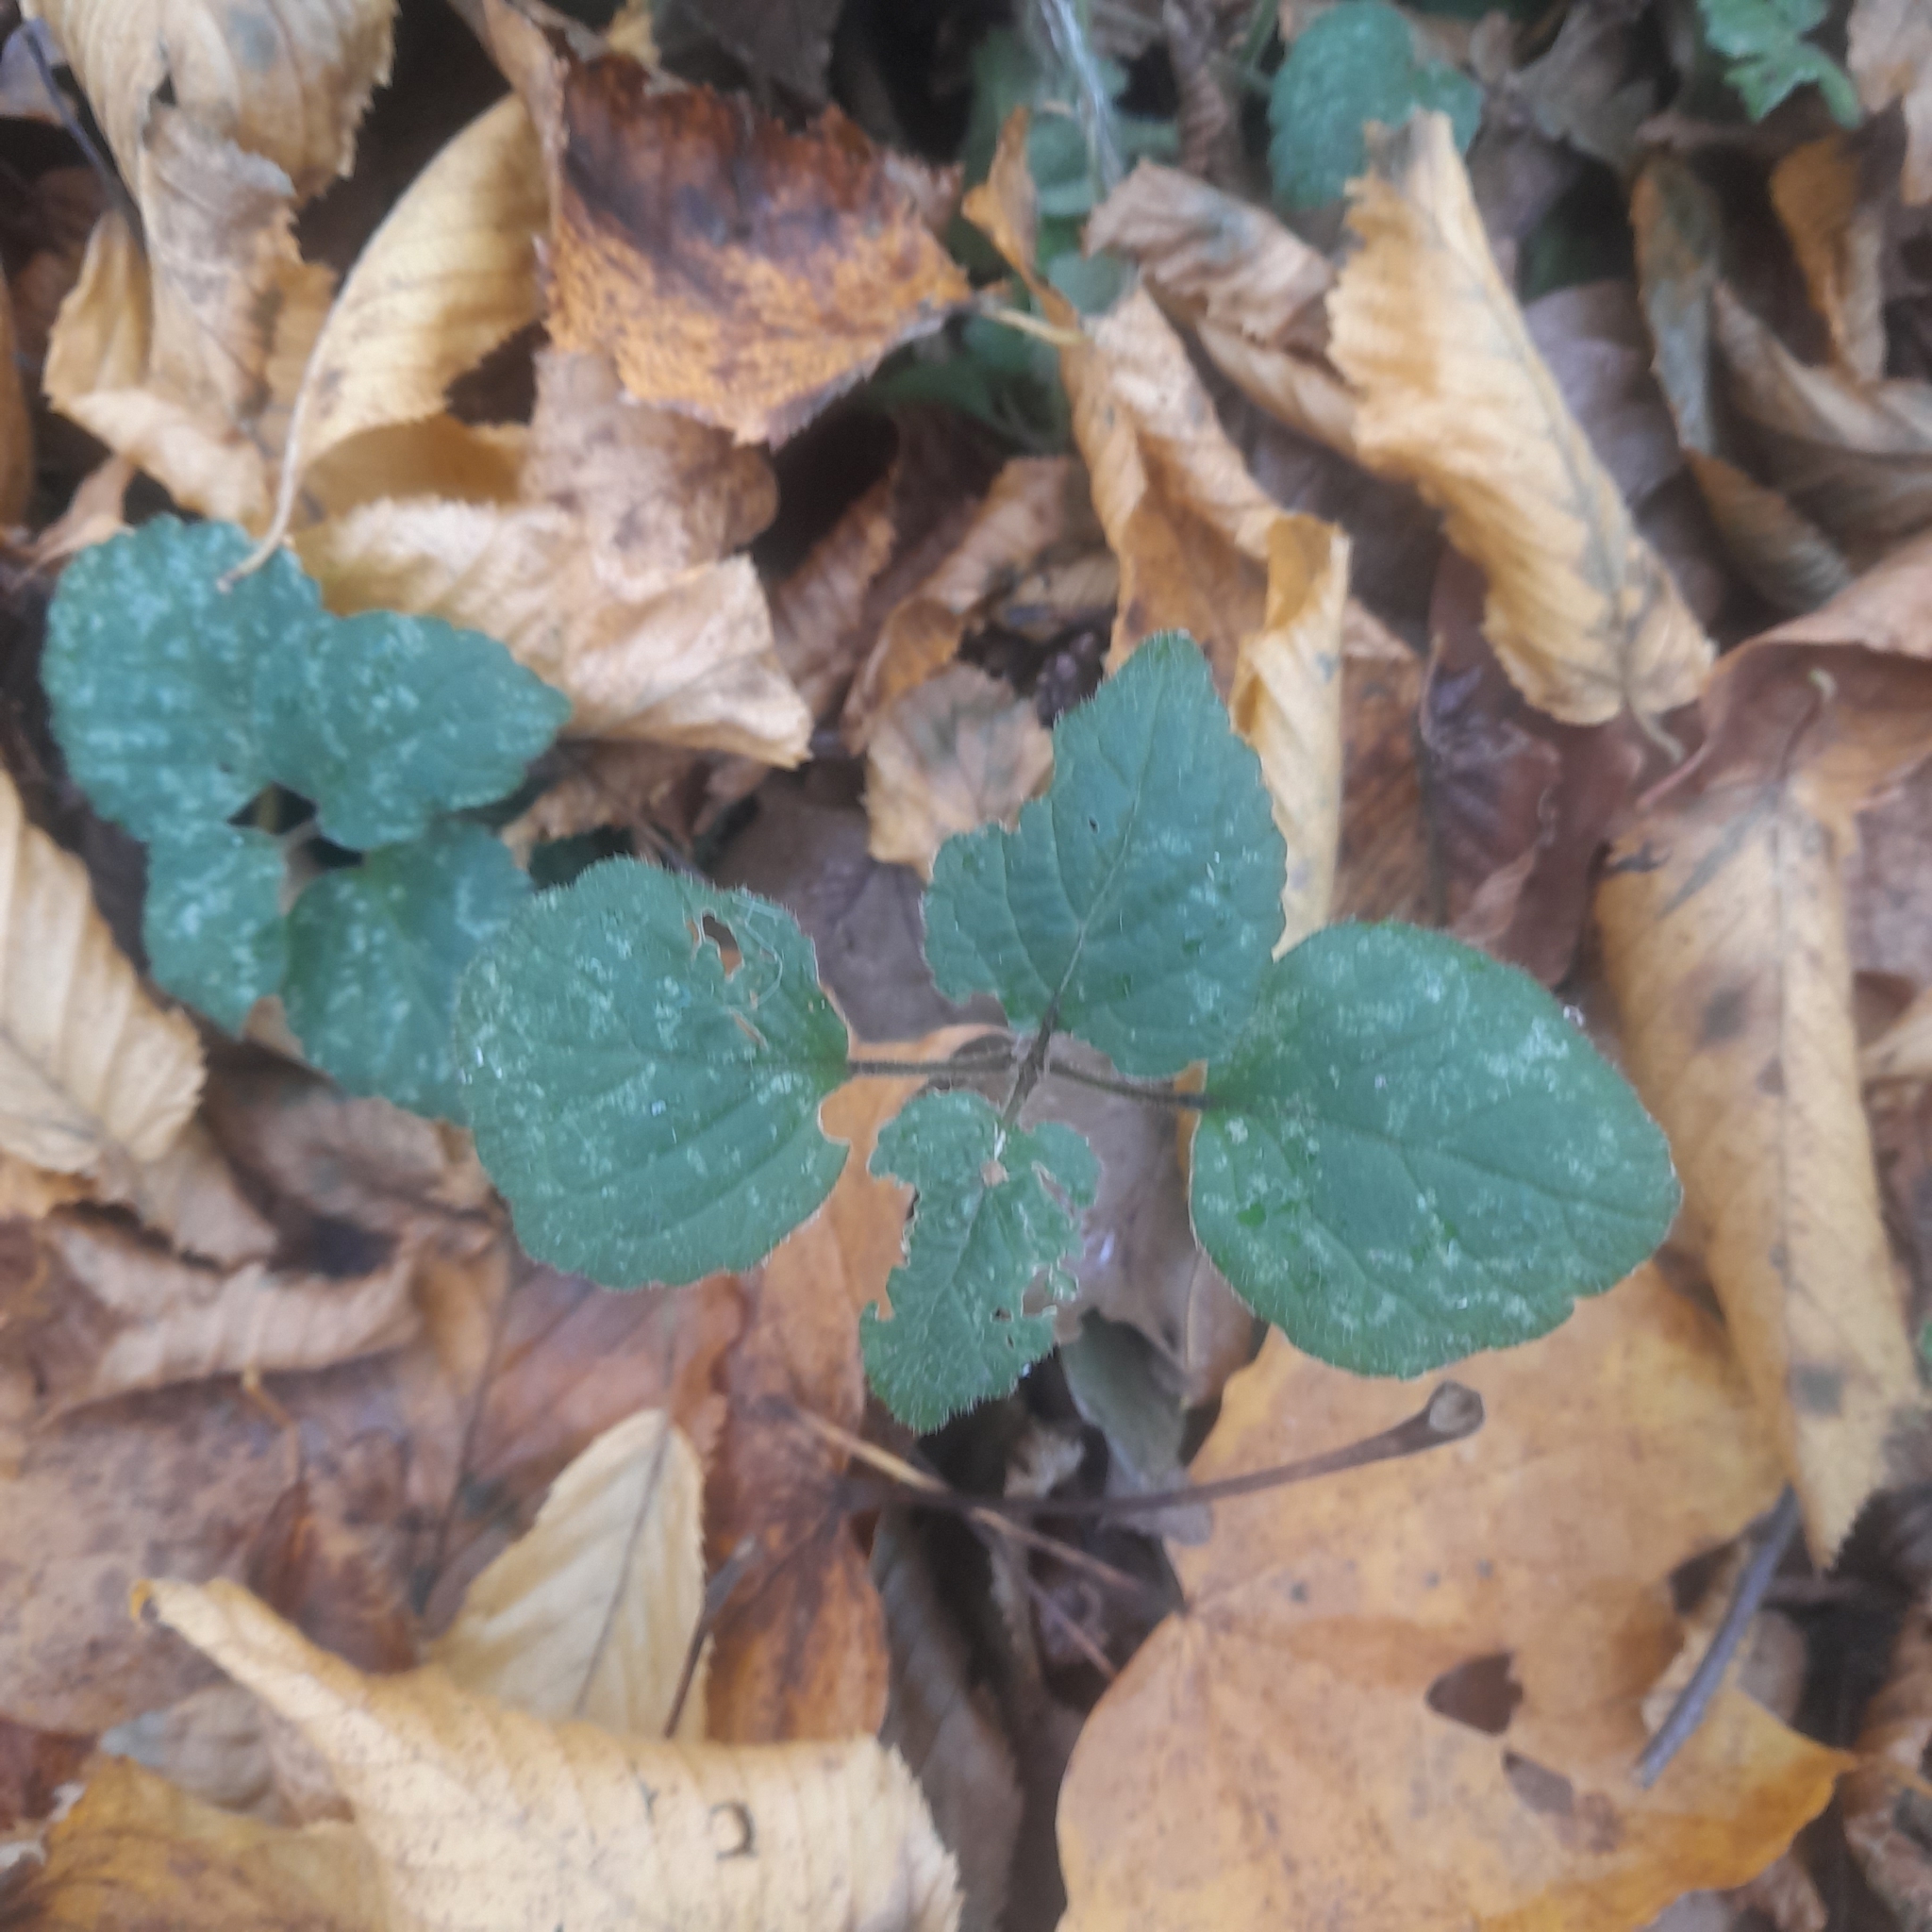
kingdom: Plantae
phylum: Tracheophyta
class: Magnoliopsida
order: Lamiales
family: Lamiaceae
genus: Lamium
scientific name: Lamium galeobdolon
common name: Yellow archangel
